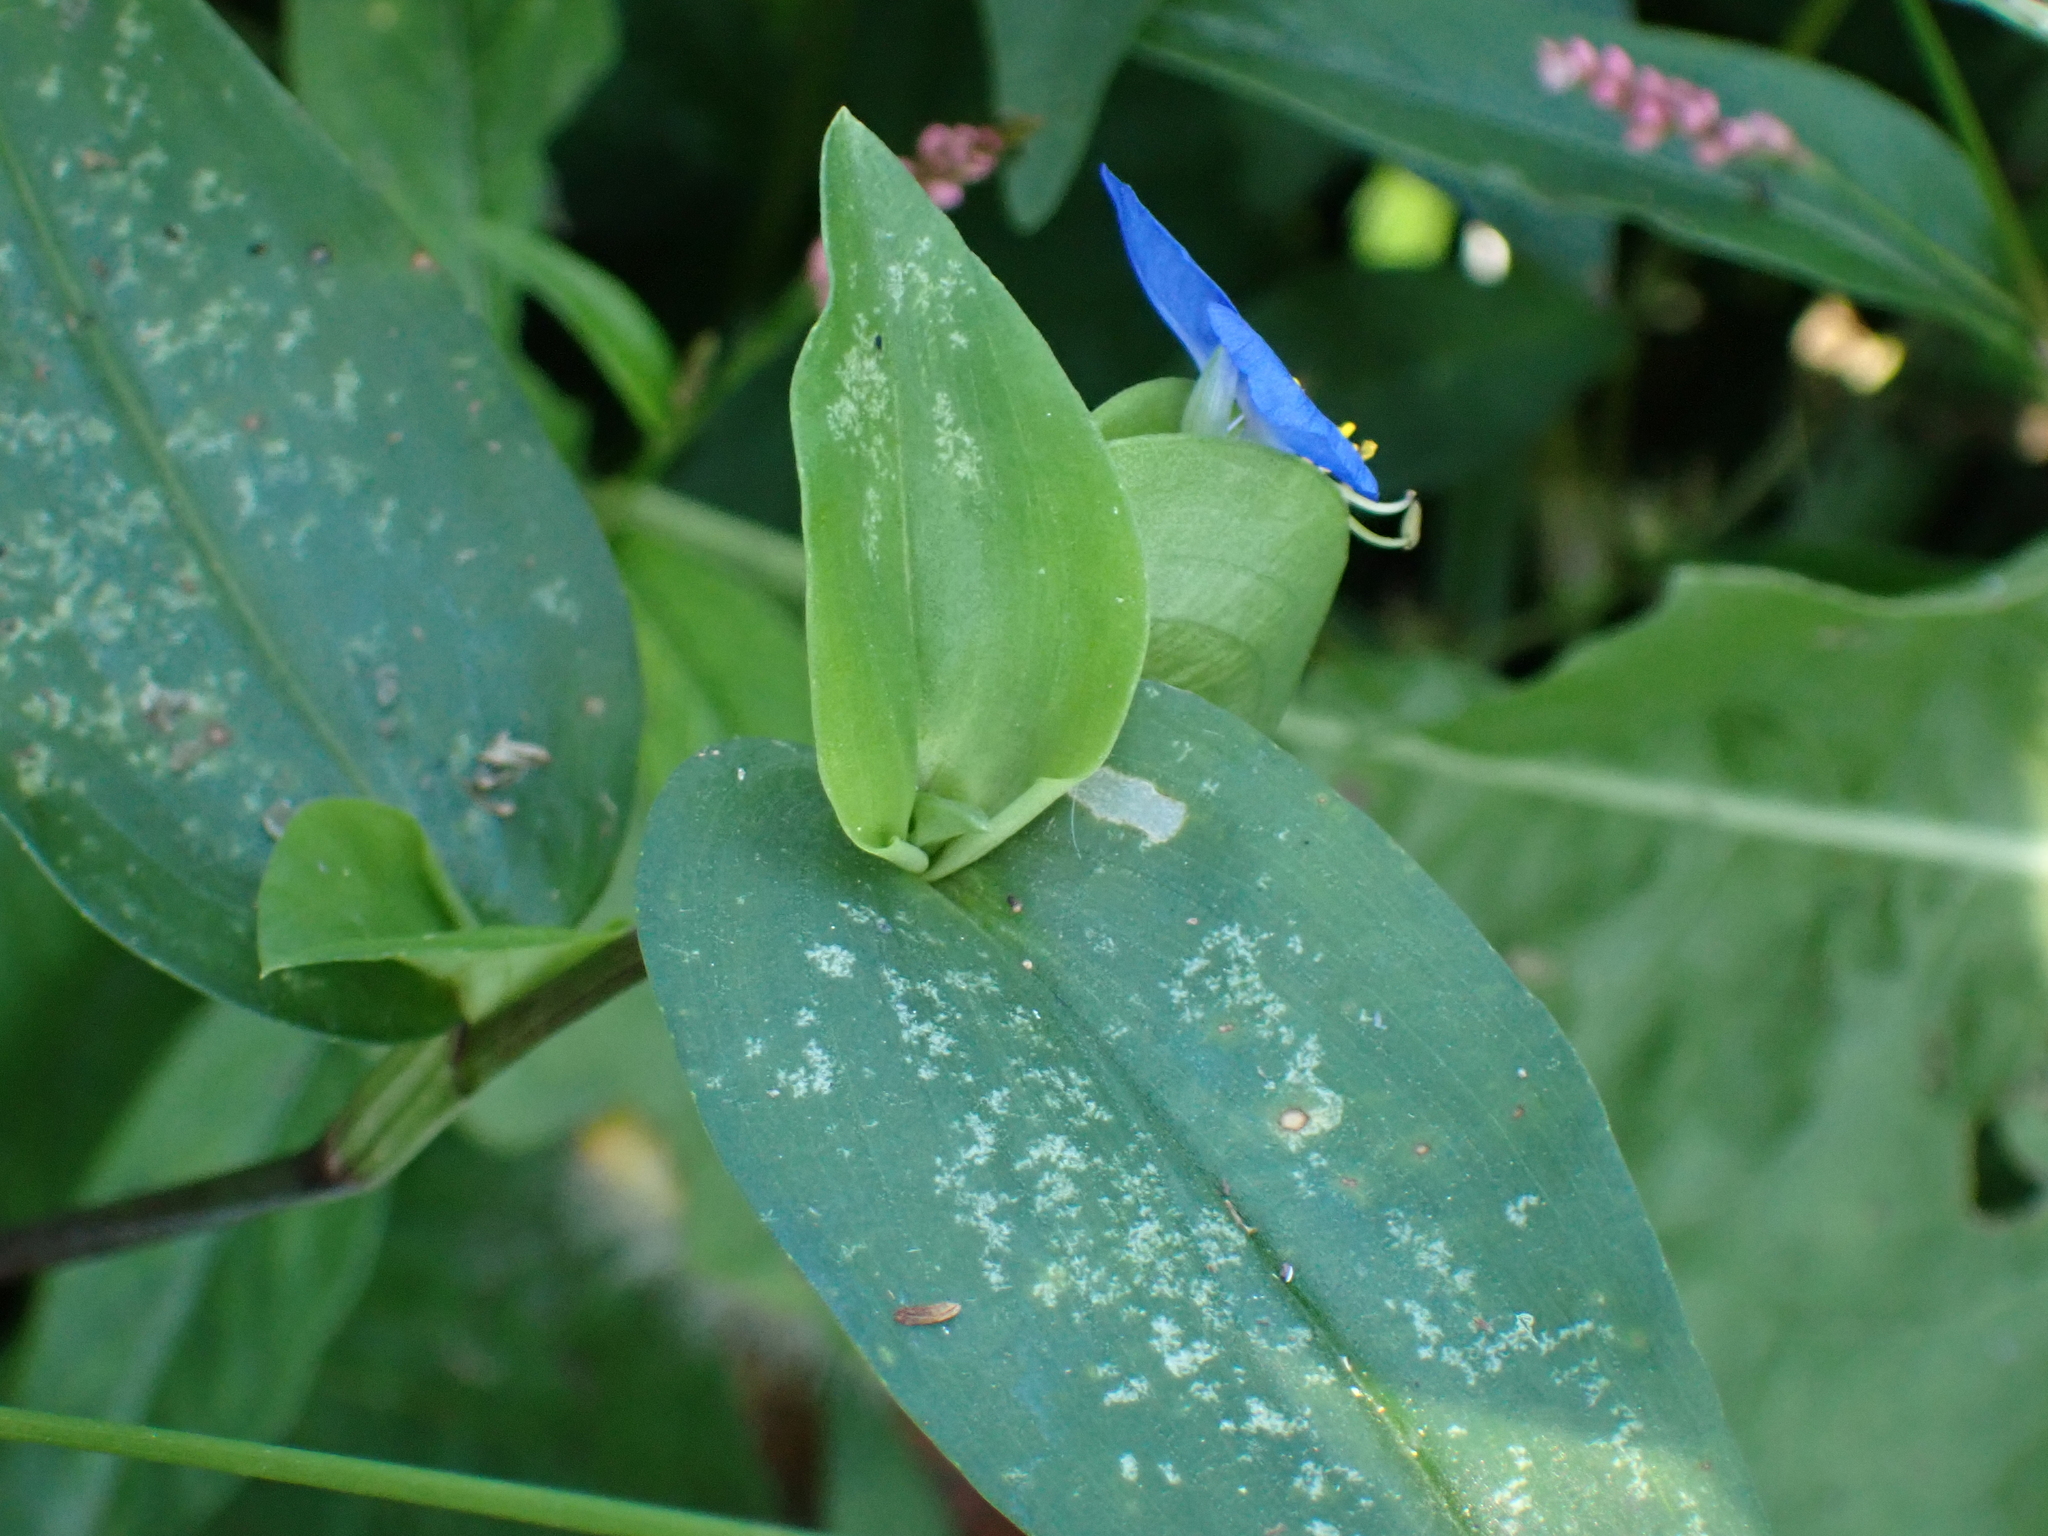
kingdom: Plantae
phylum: Tracheophyta
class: Liliopsida
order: Commelinales
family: Commelinaceae
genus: Commelina
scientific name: Commelina communis
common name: Asiatic dayflower
